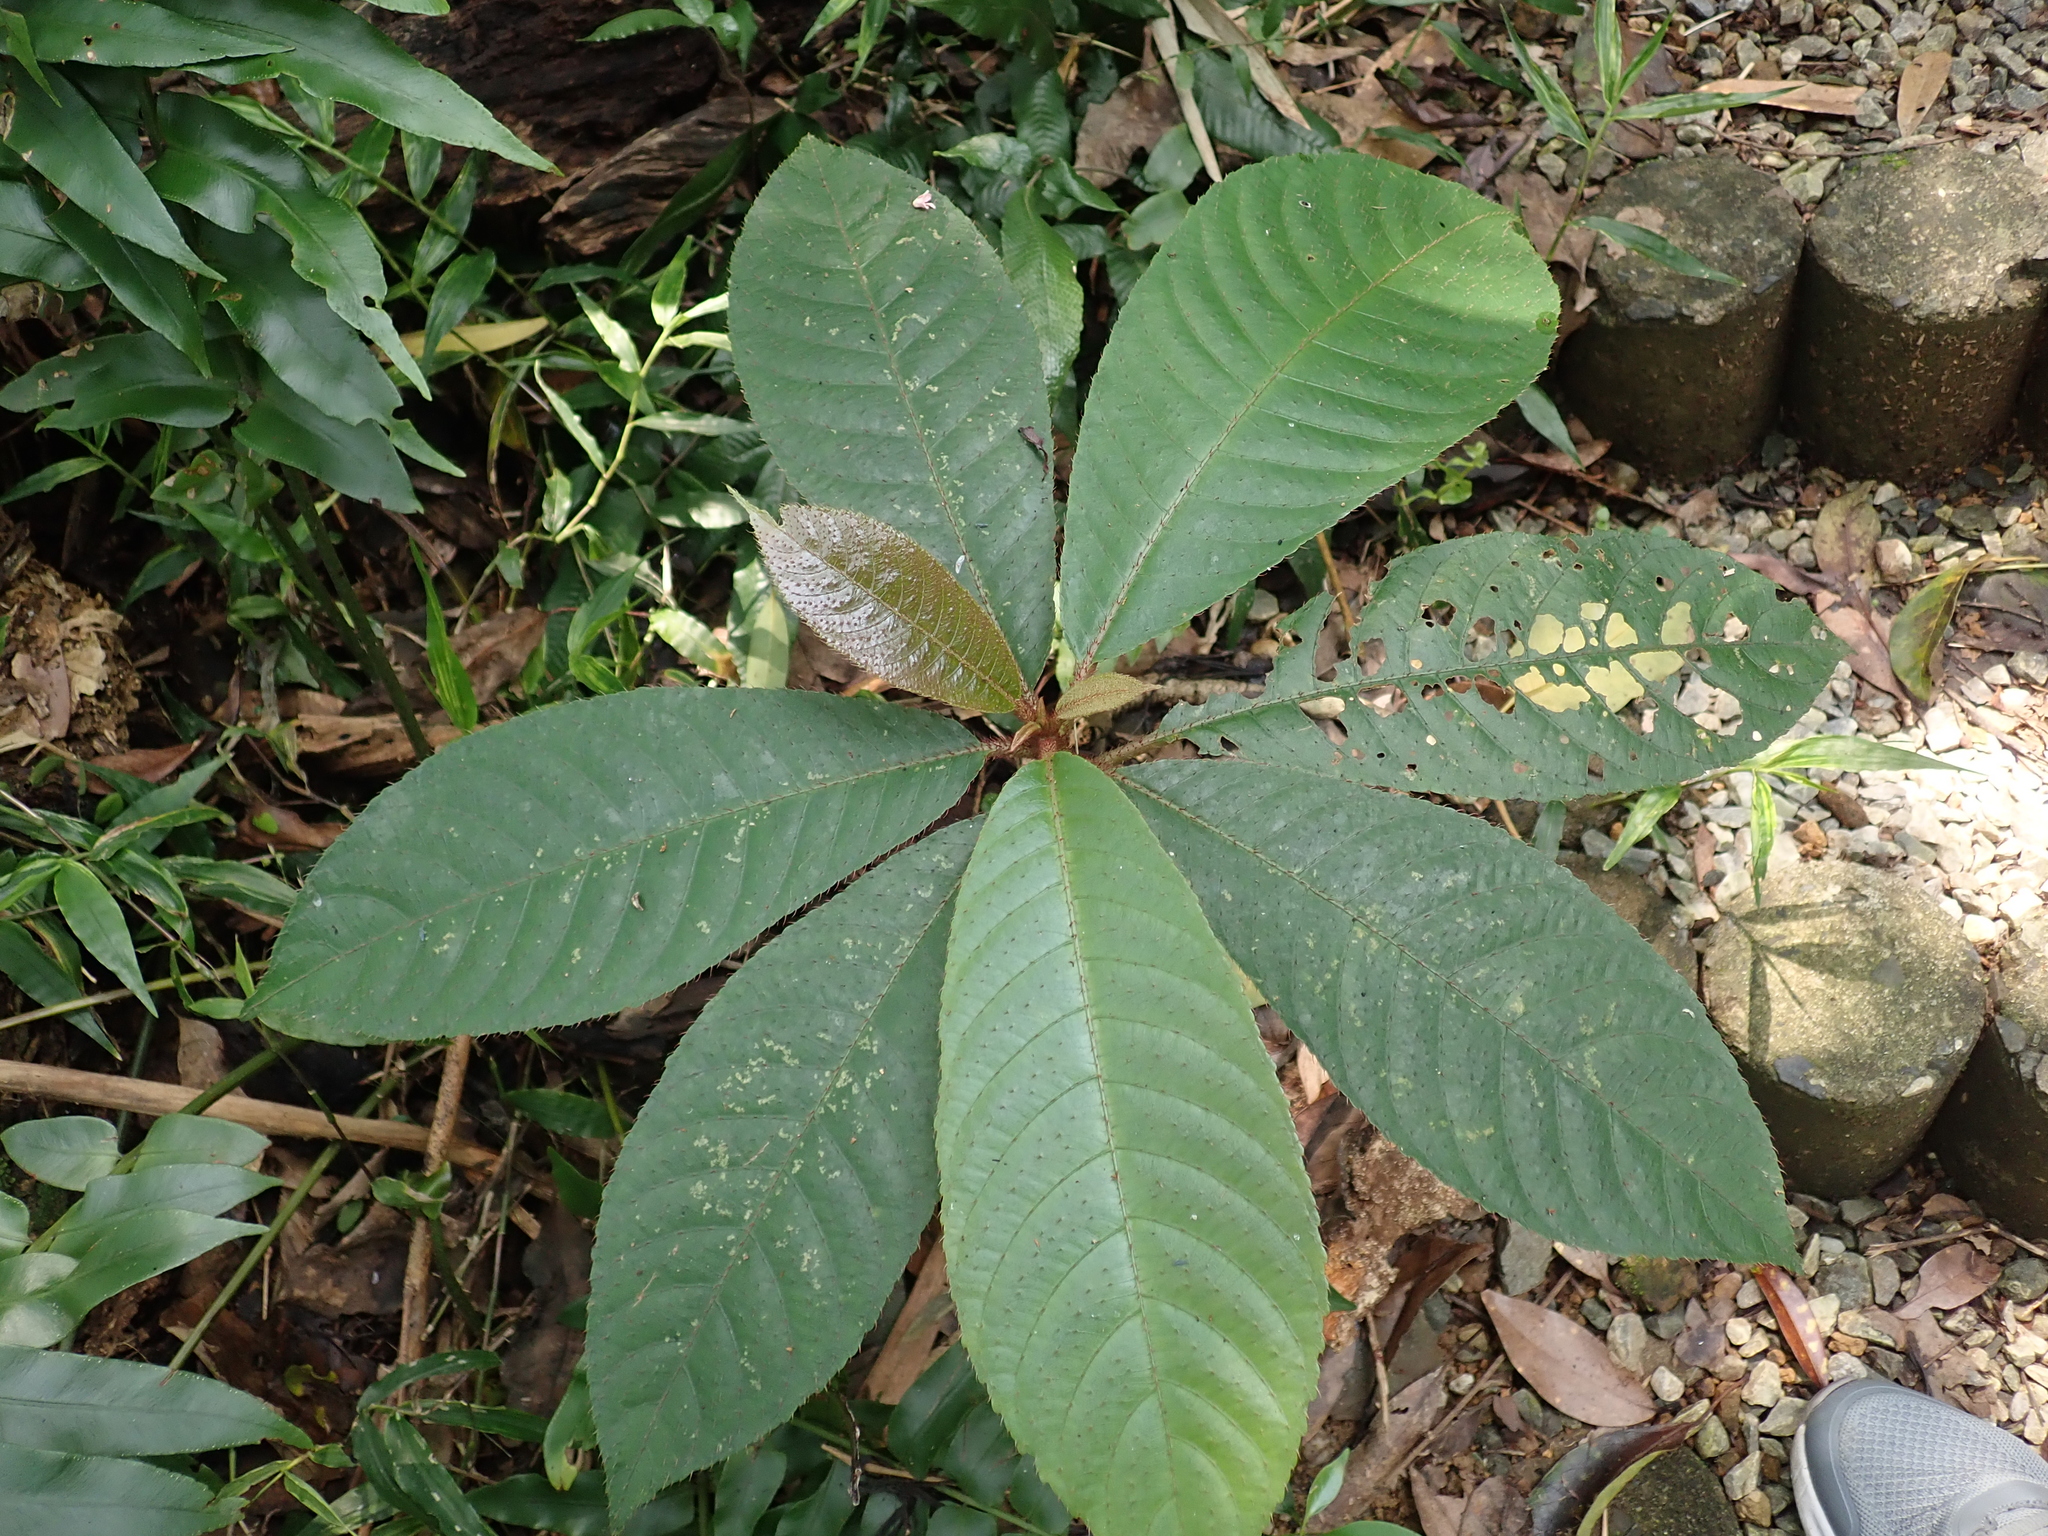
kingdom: Plantae
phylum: Tracheophyta
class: Magnoliopsida
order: Ericales
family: Actinidiaceae
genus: Saurauia
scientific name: Saurauia tristyla
